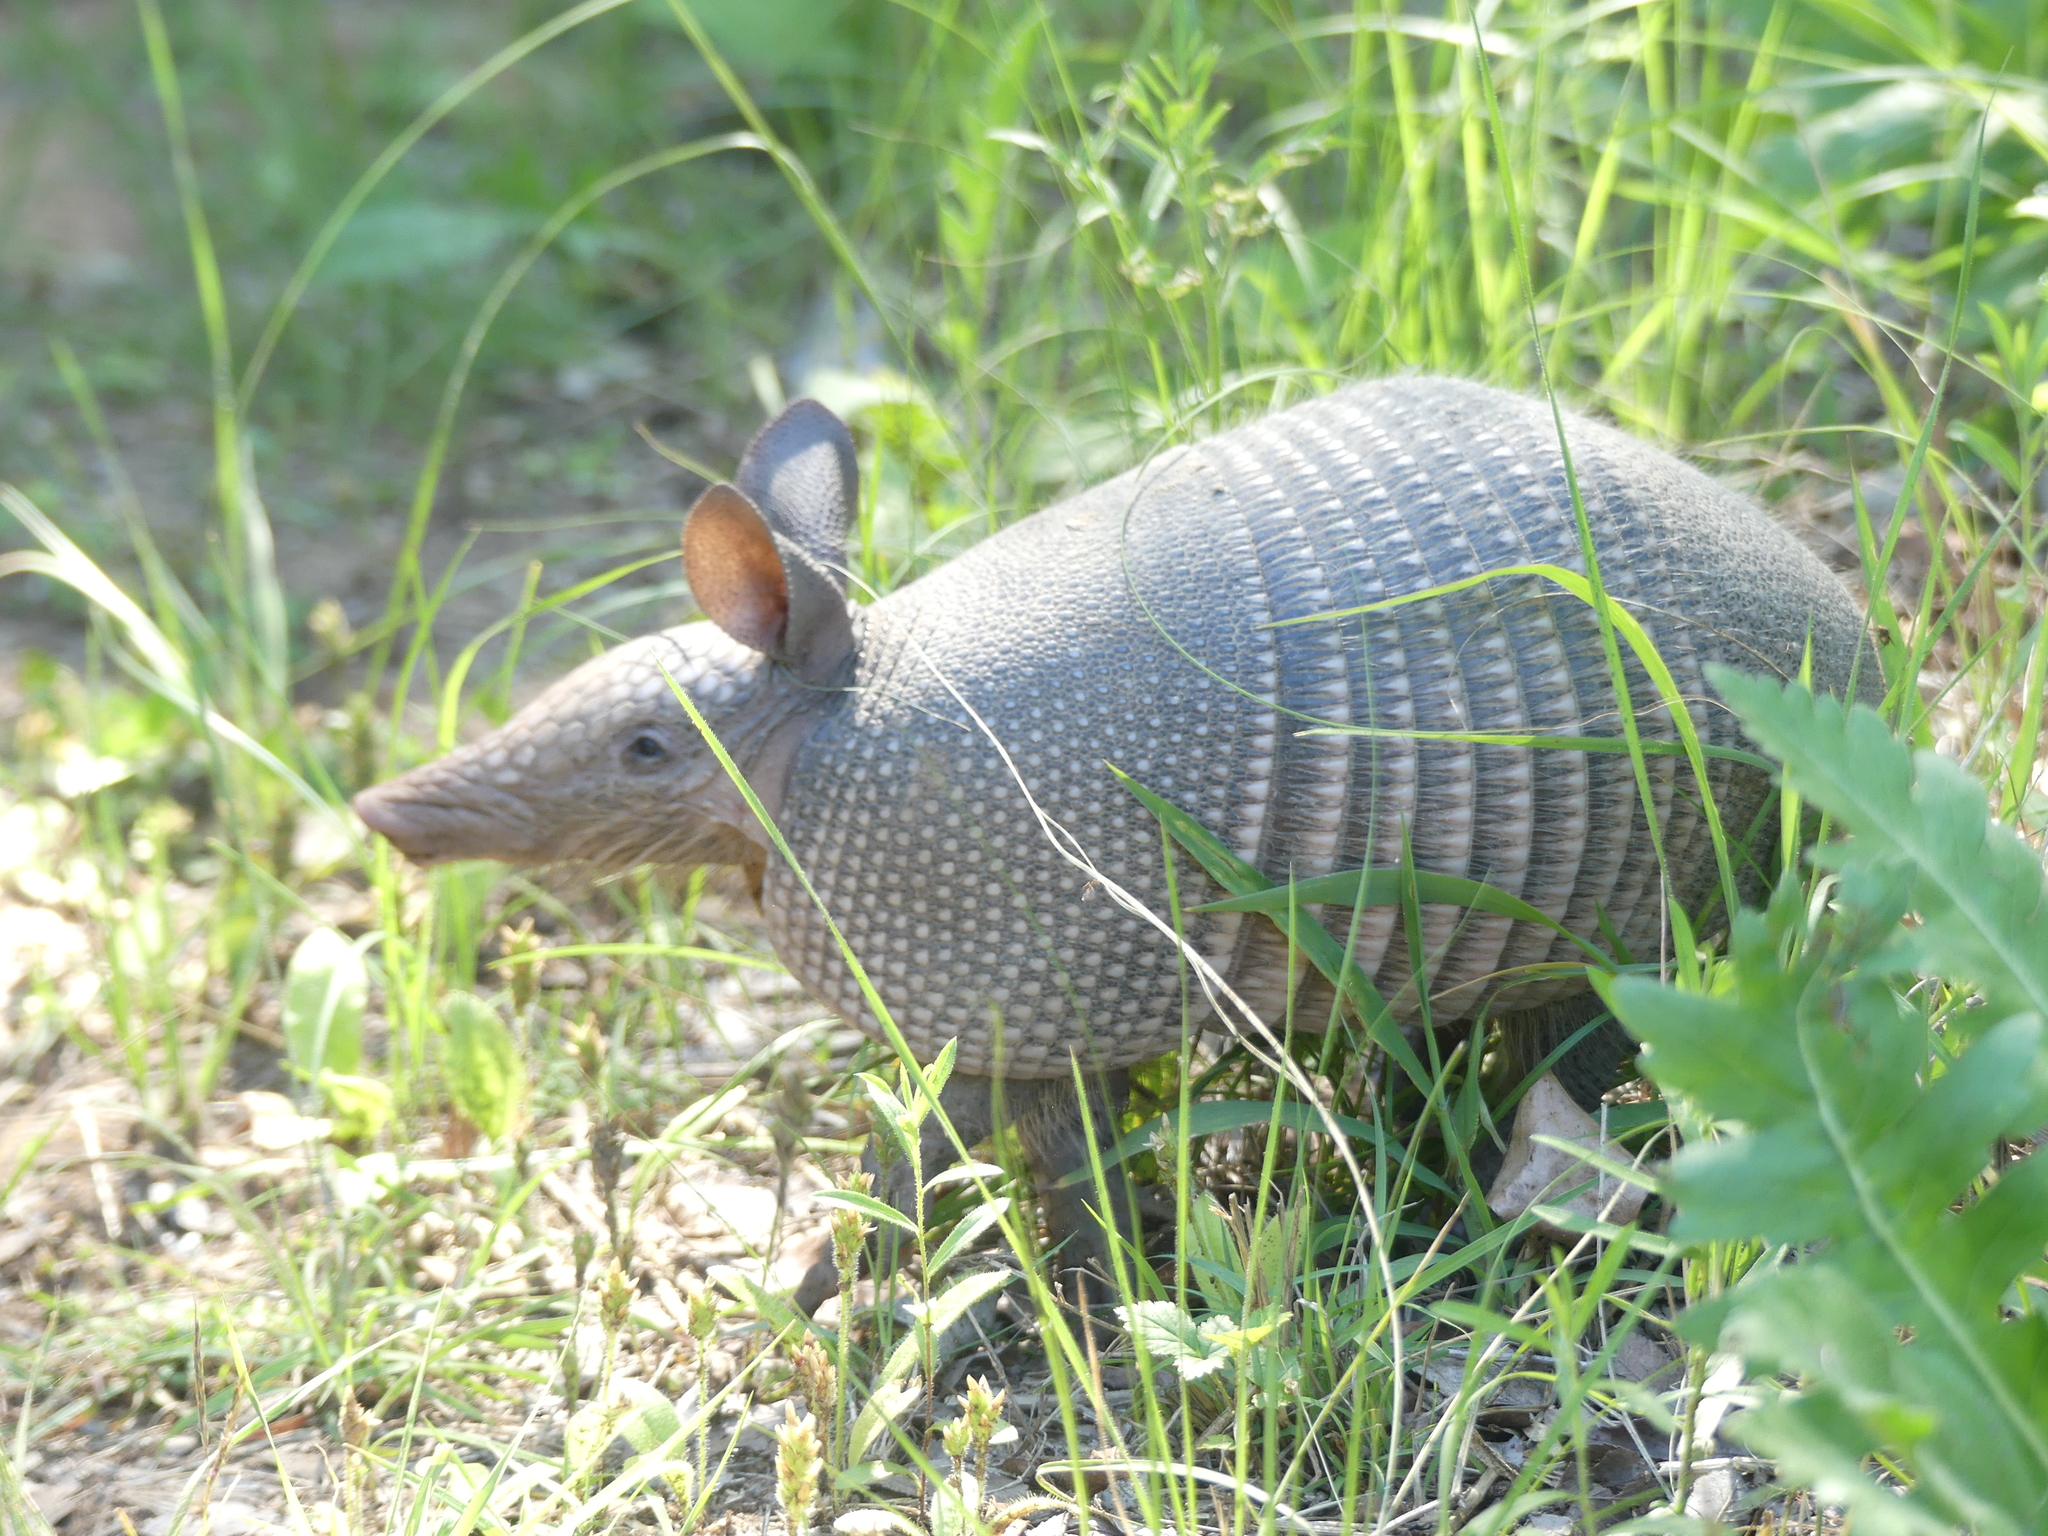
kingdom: Animalia
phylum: Chordata
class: Mammalia
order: Cingulata
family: Dasypodidae
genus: Dasypus
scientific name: Dasypus novemcinctus
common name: Nine-banded armadillo
